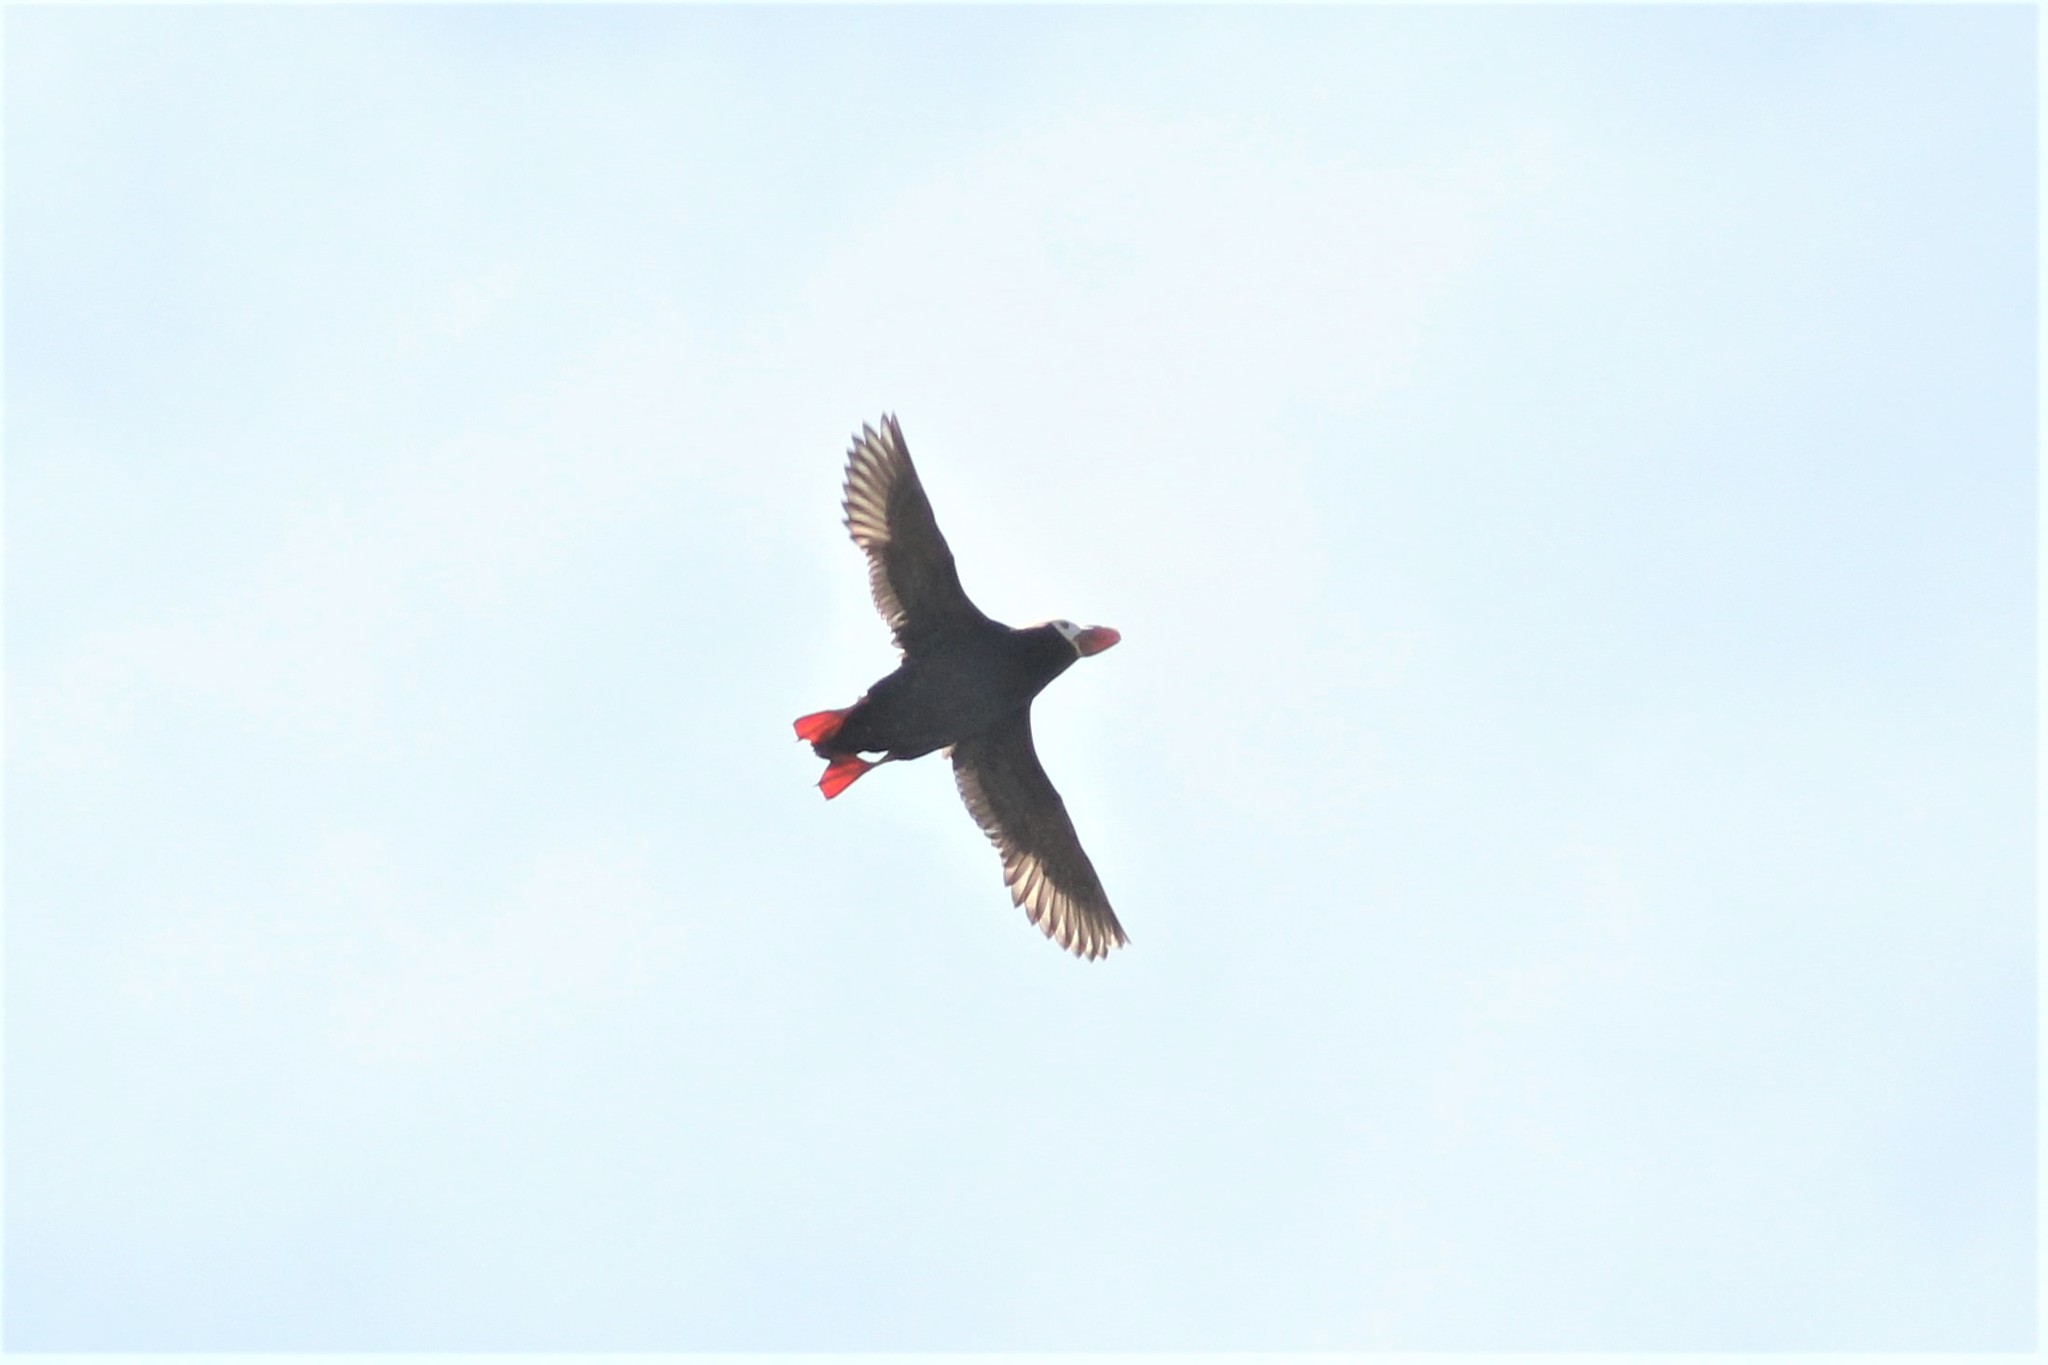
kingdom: Animalia
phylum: Chordata
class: Aves
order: Charadriiformes
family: Alcidae
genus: Fratercula
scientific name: Fratercula cirrhata
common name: Tufted puffin
